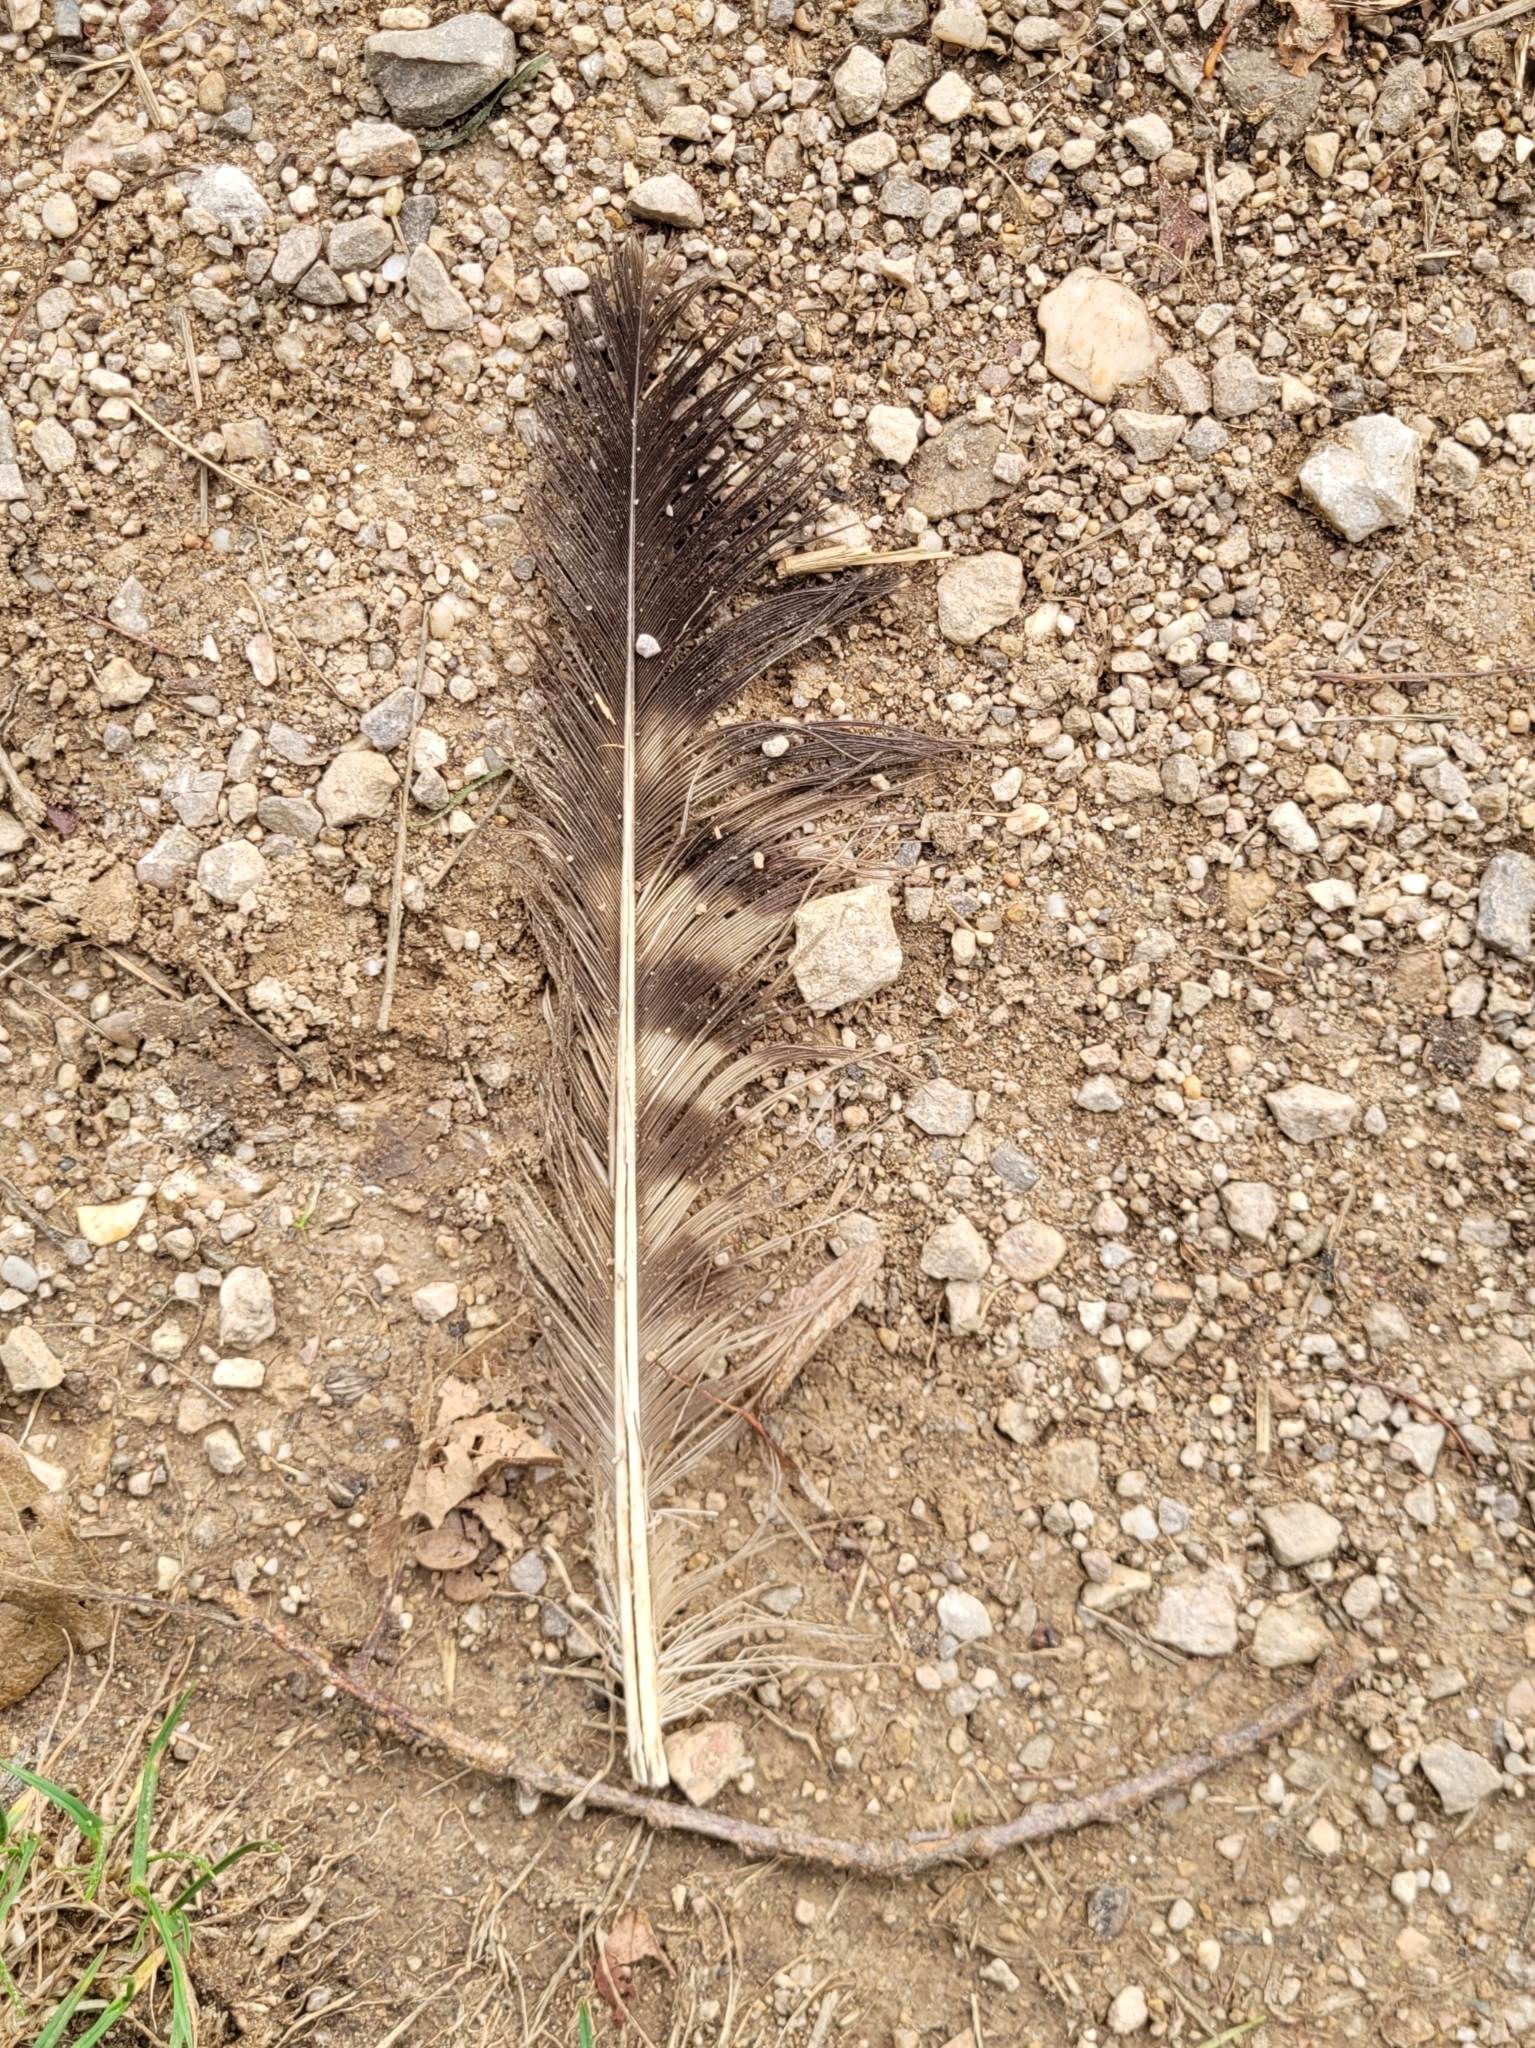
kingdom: Animalia
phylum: Chordata
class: Aves
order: Accipitriformes
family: Accipitridae
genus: Buteo
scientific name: Buteo buteo
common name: Common buzzard
